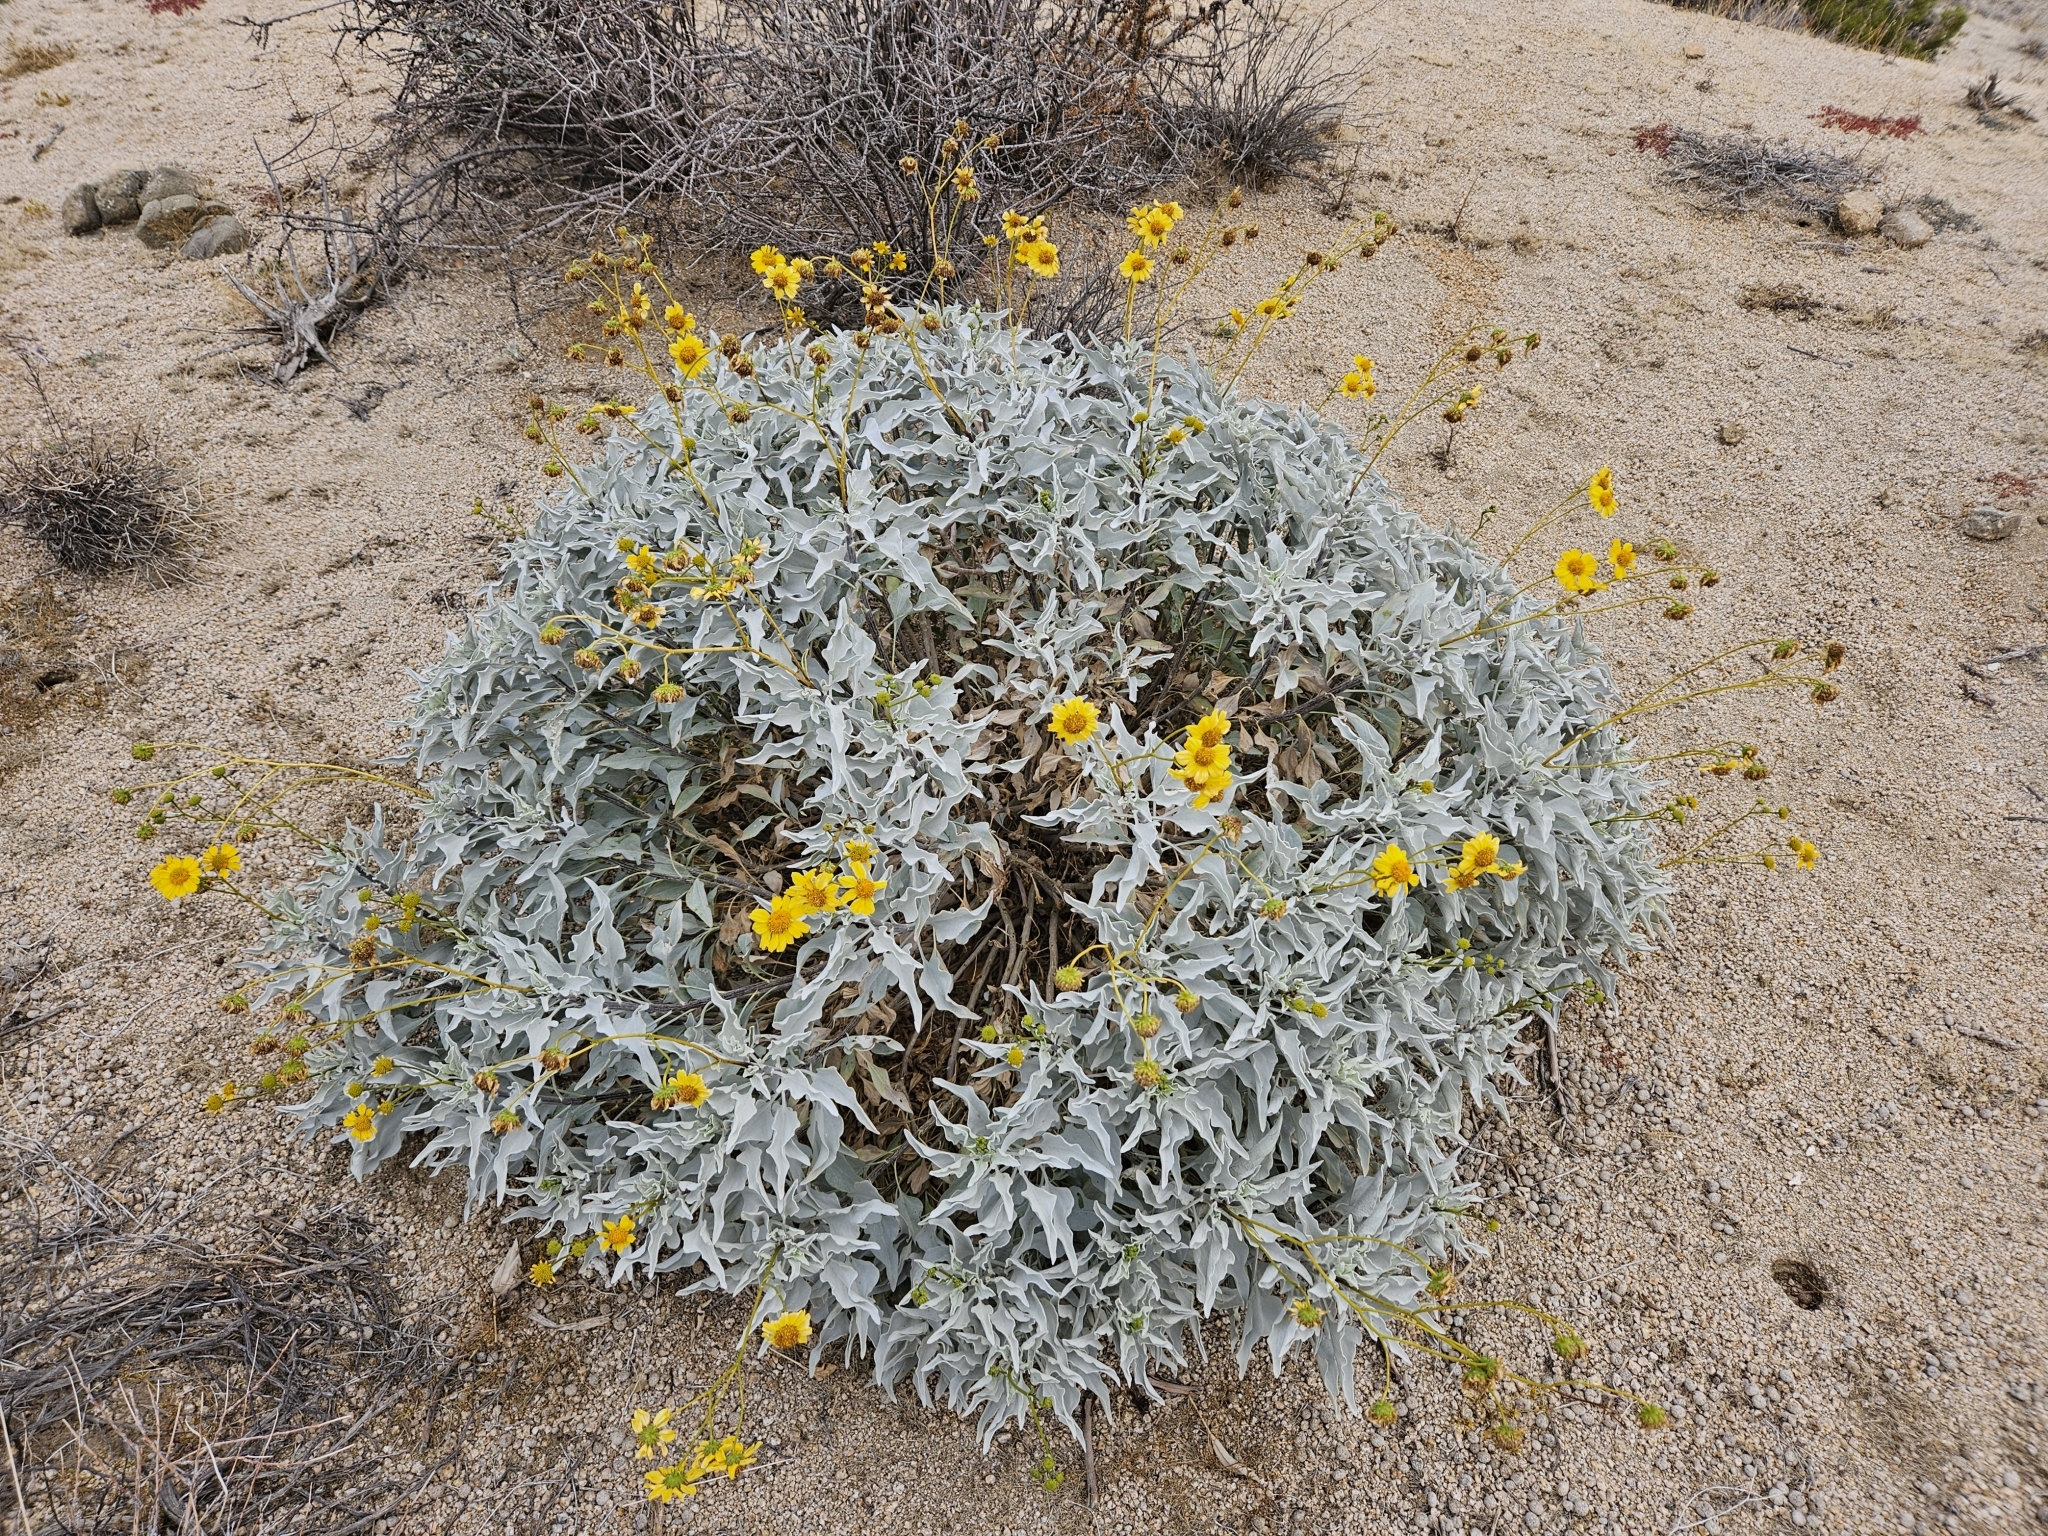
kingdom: Plantae
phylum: Tracheophyta
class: Magnoliopsida
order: Asterales
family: Asteraceae
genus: Encelia
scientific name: Encelia farinosa
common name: Brittlebush
